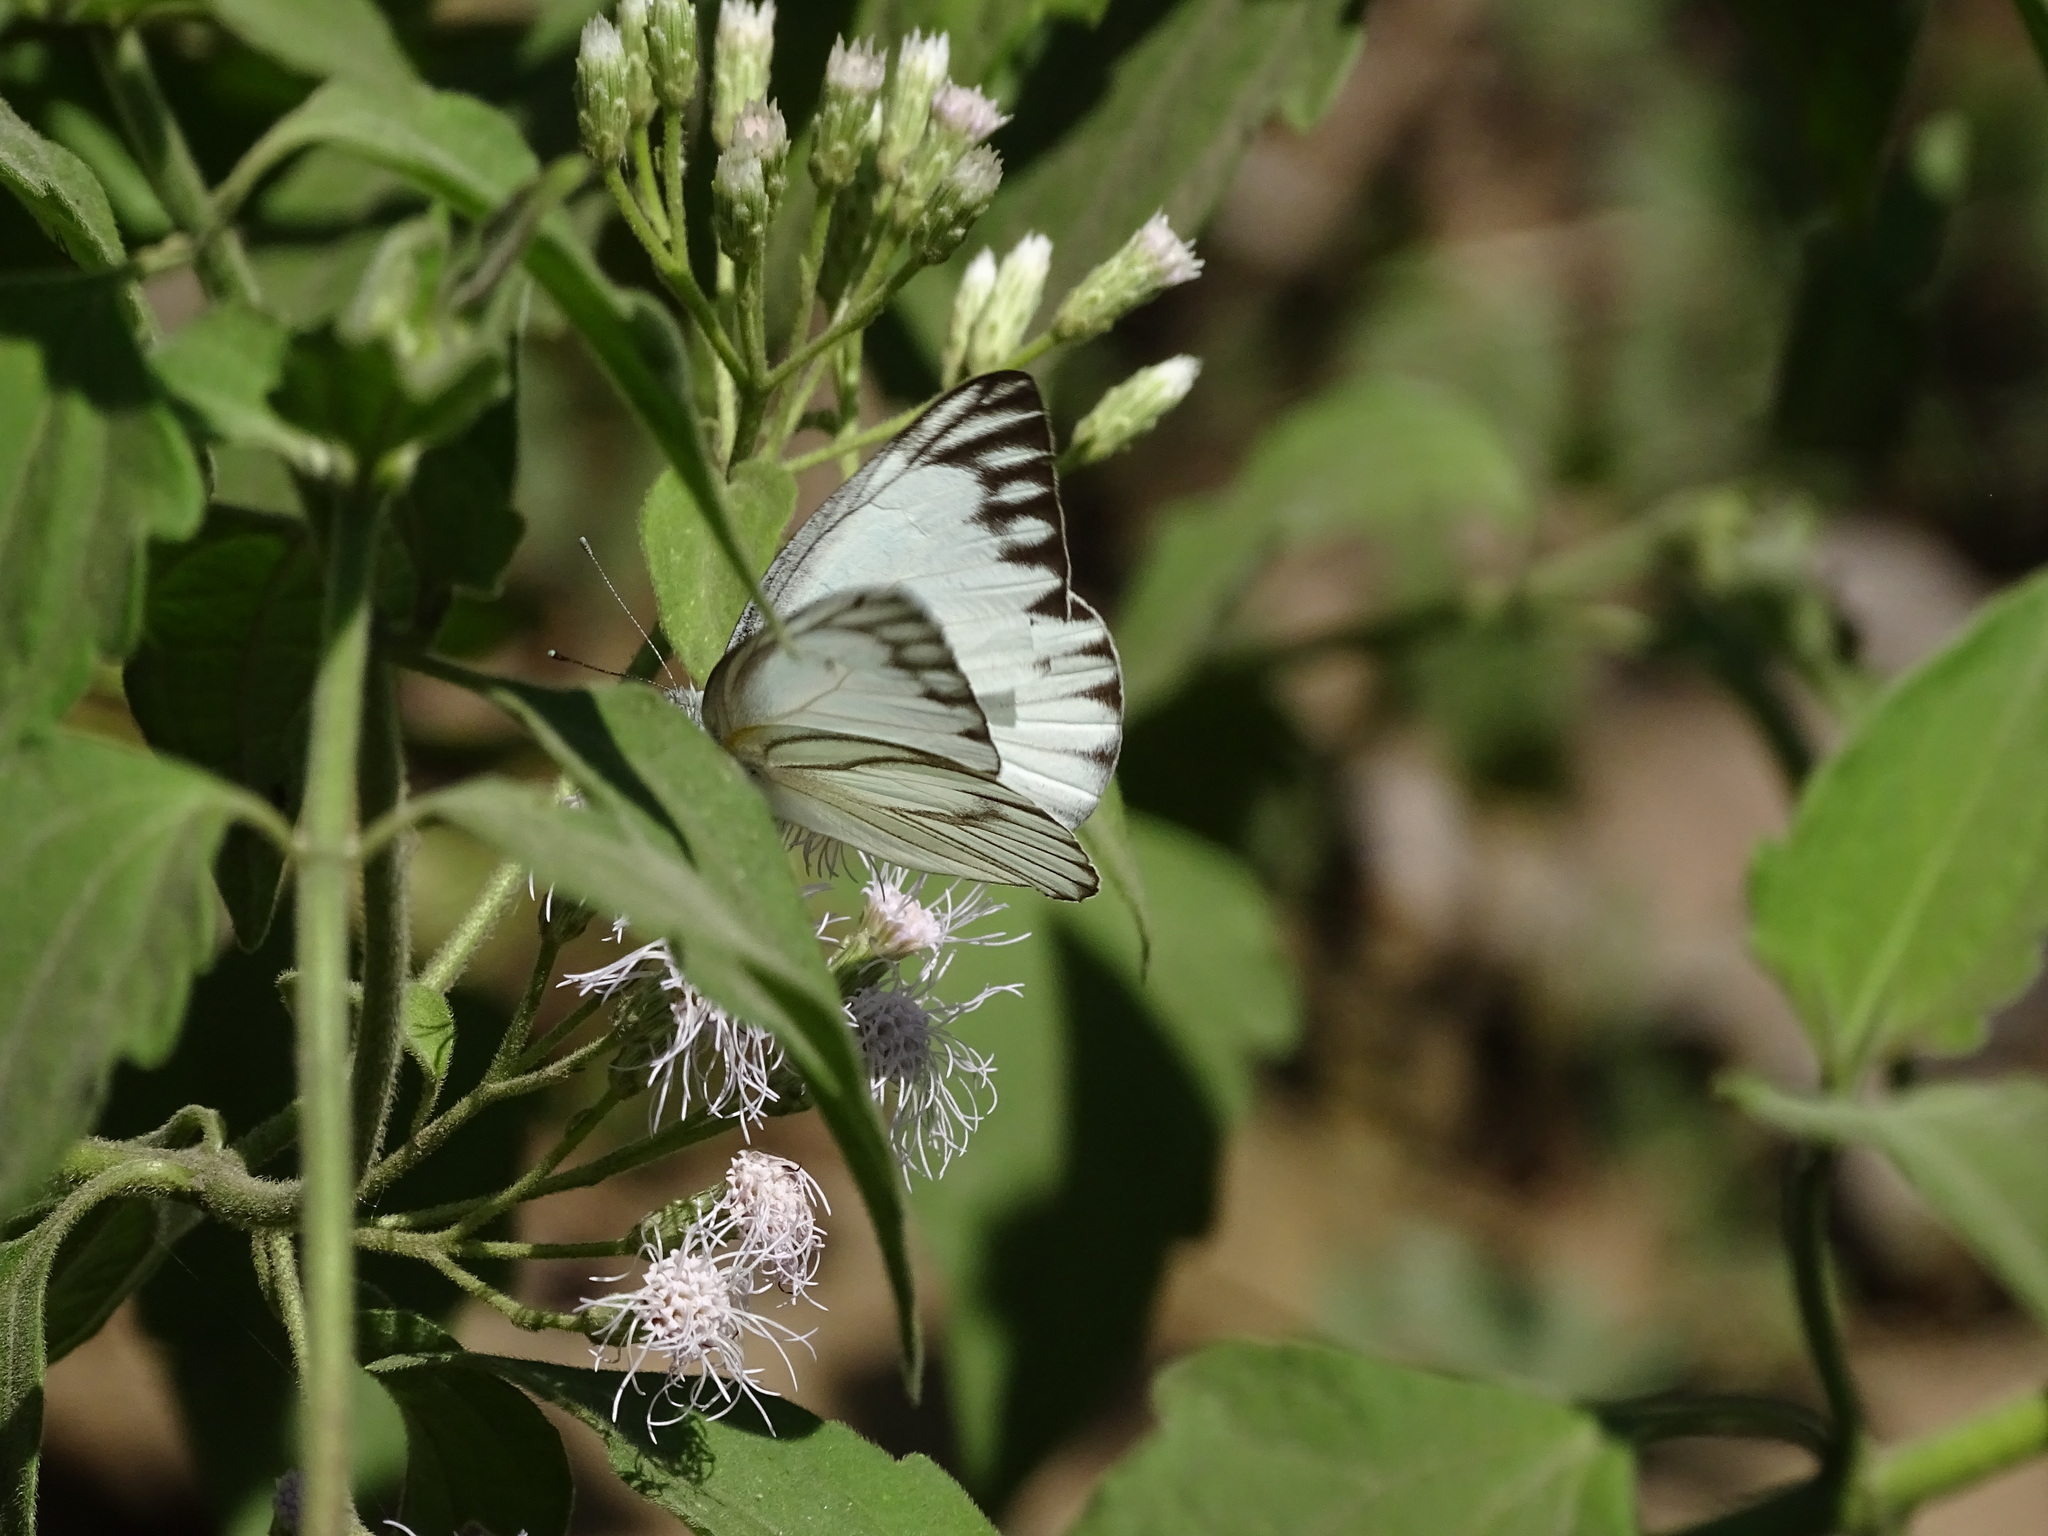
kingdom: Animalia
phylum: Arthropoda
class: Insecta
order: Lepidoptera
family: Pieridae
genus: Appias
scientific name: Appias libythea
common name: Striped albatross
